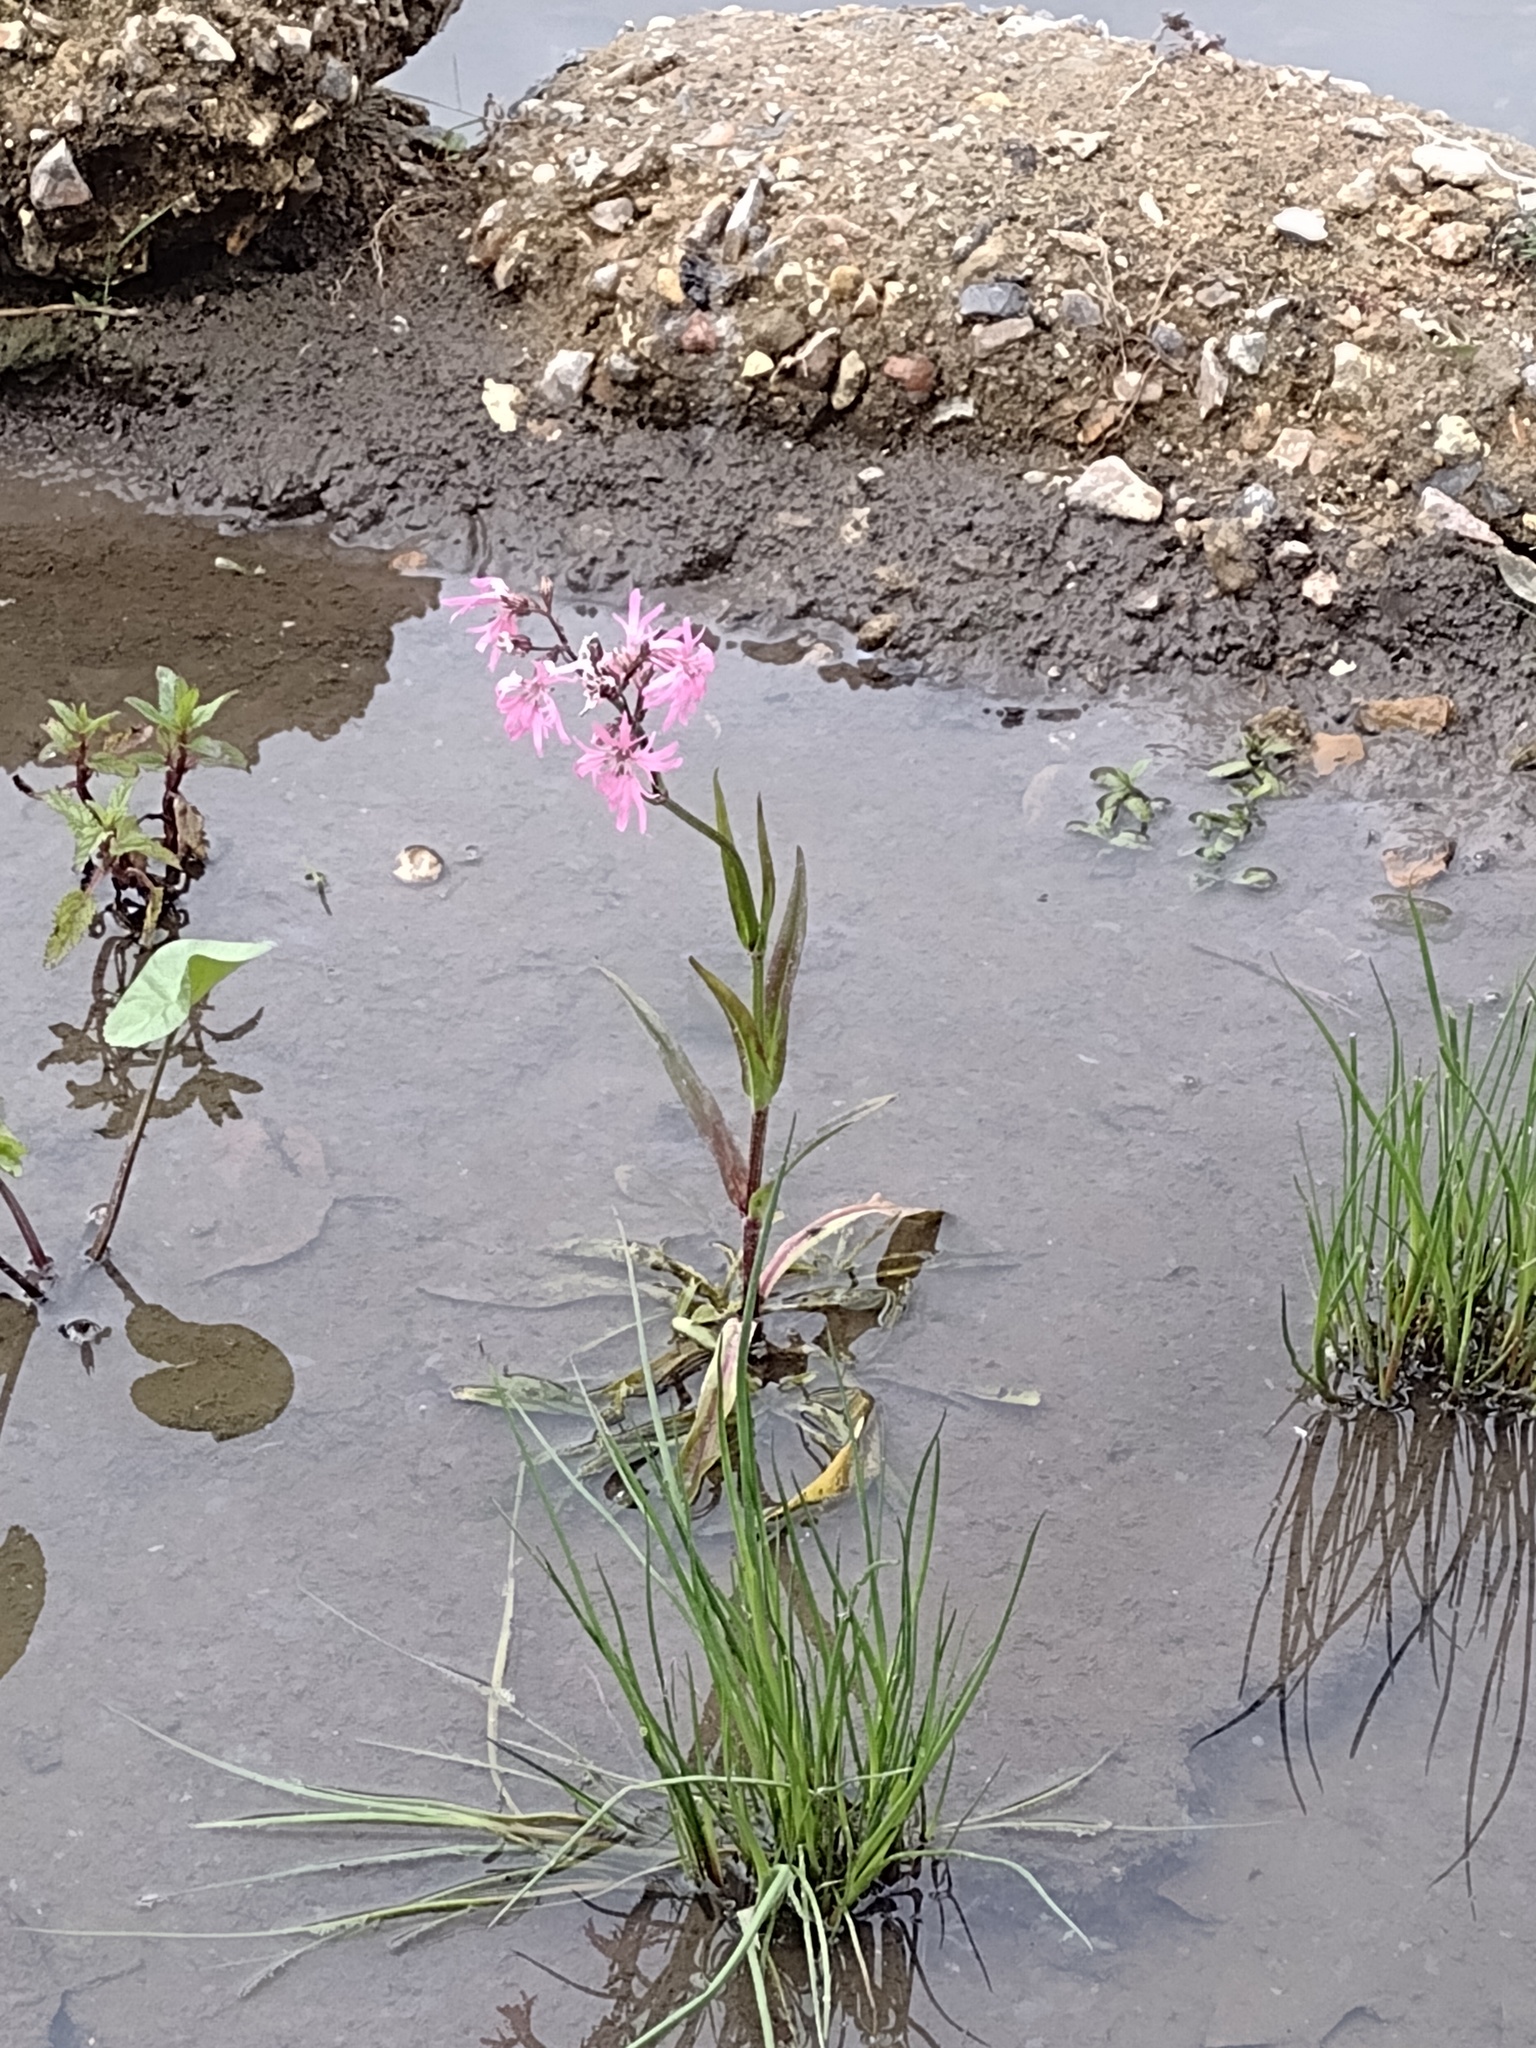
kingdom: Plantae
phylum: Tracheophyta
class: Magnoliopsida
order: Caryophyllales
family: Caryophyllaceae
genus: Silene
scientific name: Silene flos-cuculi
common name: Ragged-robin
